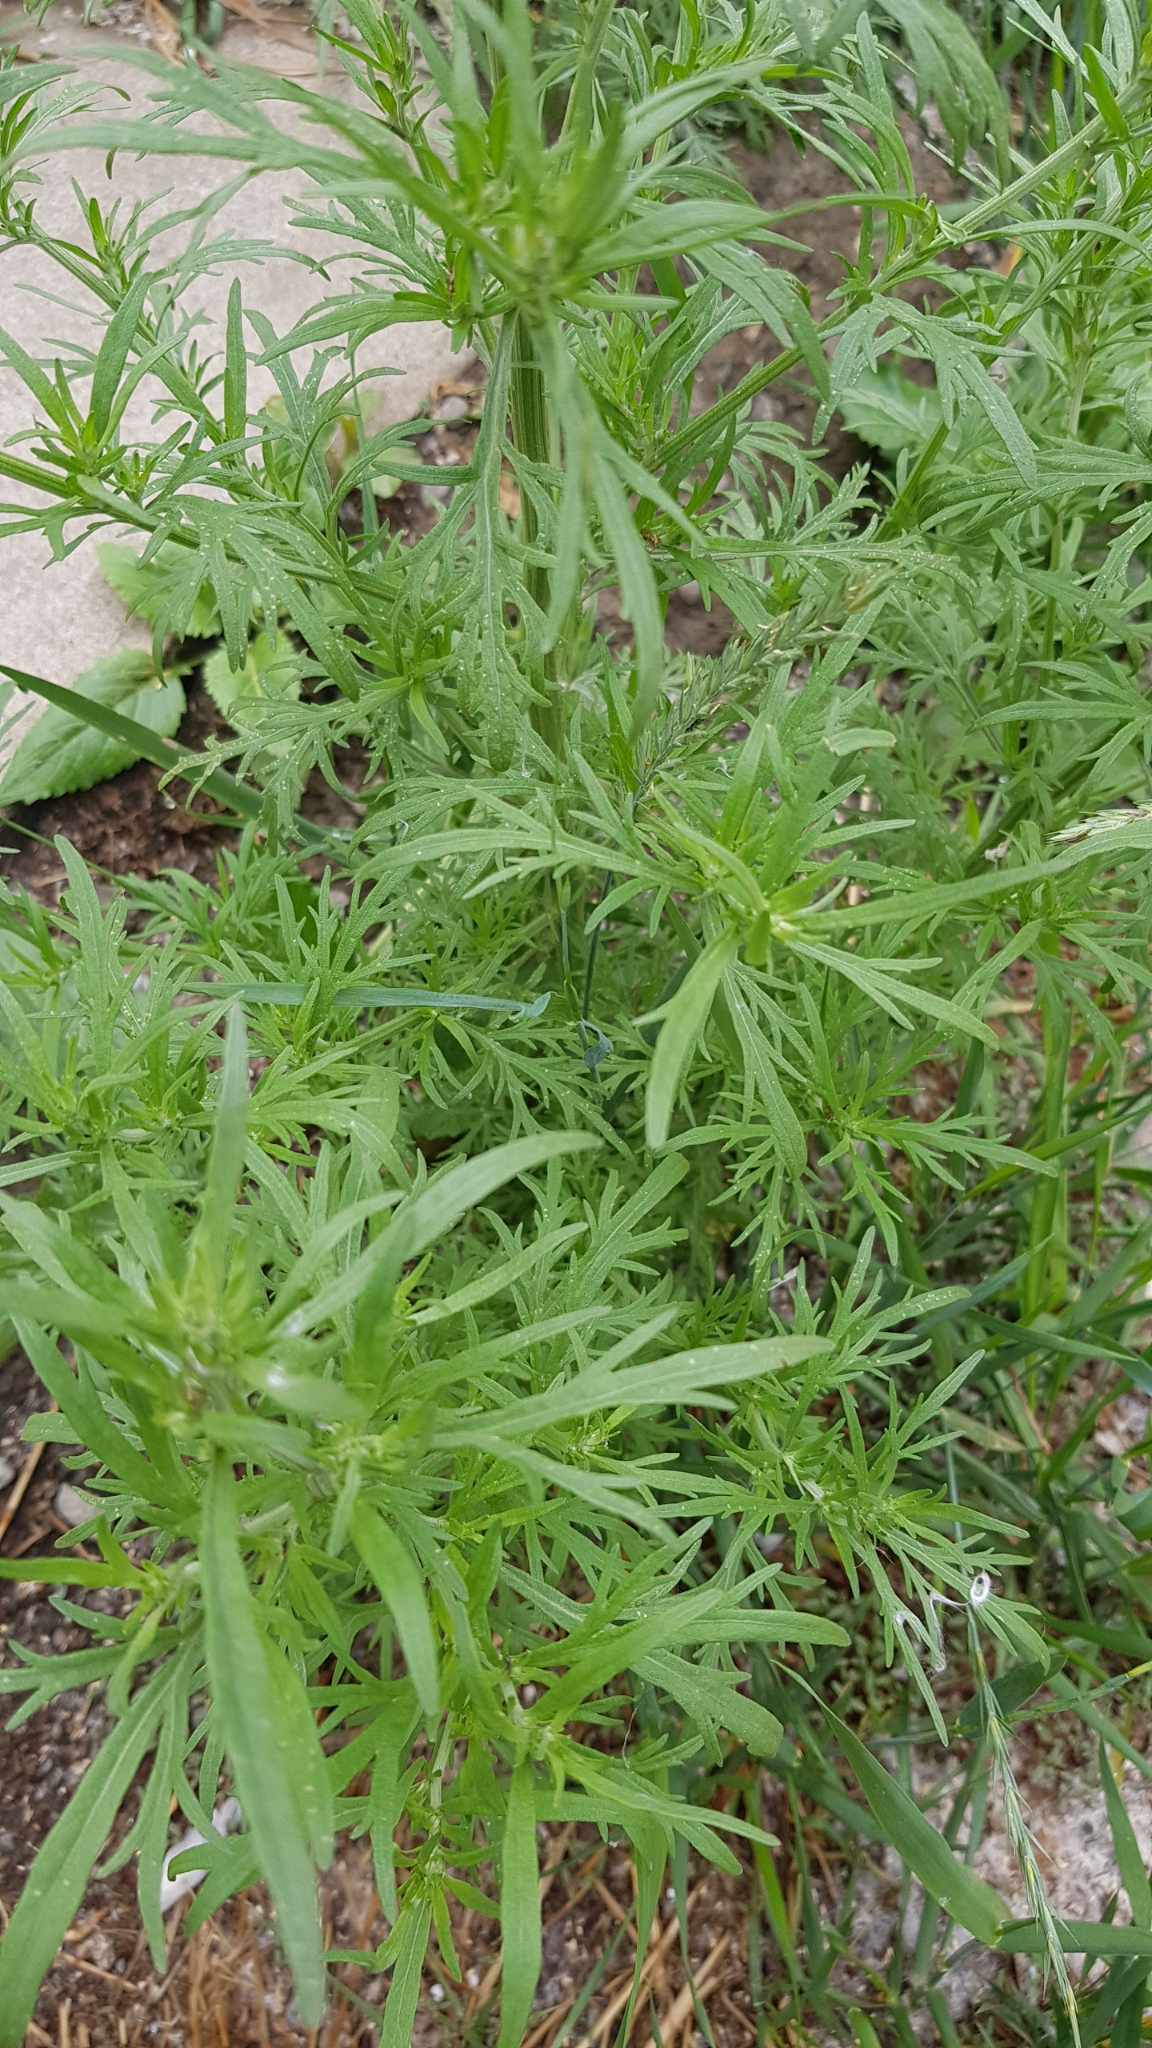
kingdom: Plantae
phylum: Tracheophyta
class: Magnoliopsida
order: Asterales
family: Asteraceae
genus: Artemisia
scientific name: Artemisia sieversiana
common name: Sieversian wormwood
